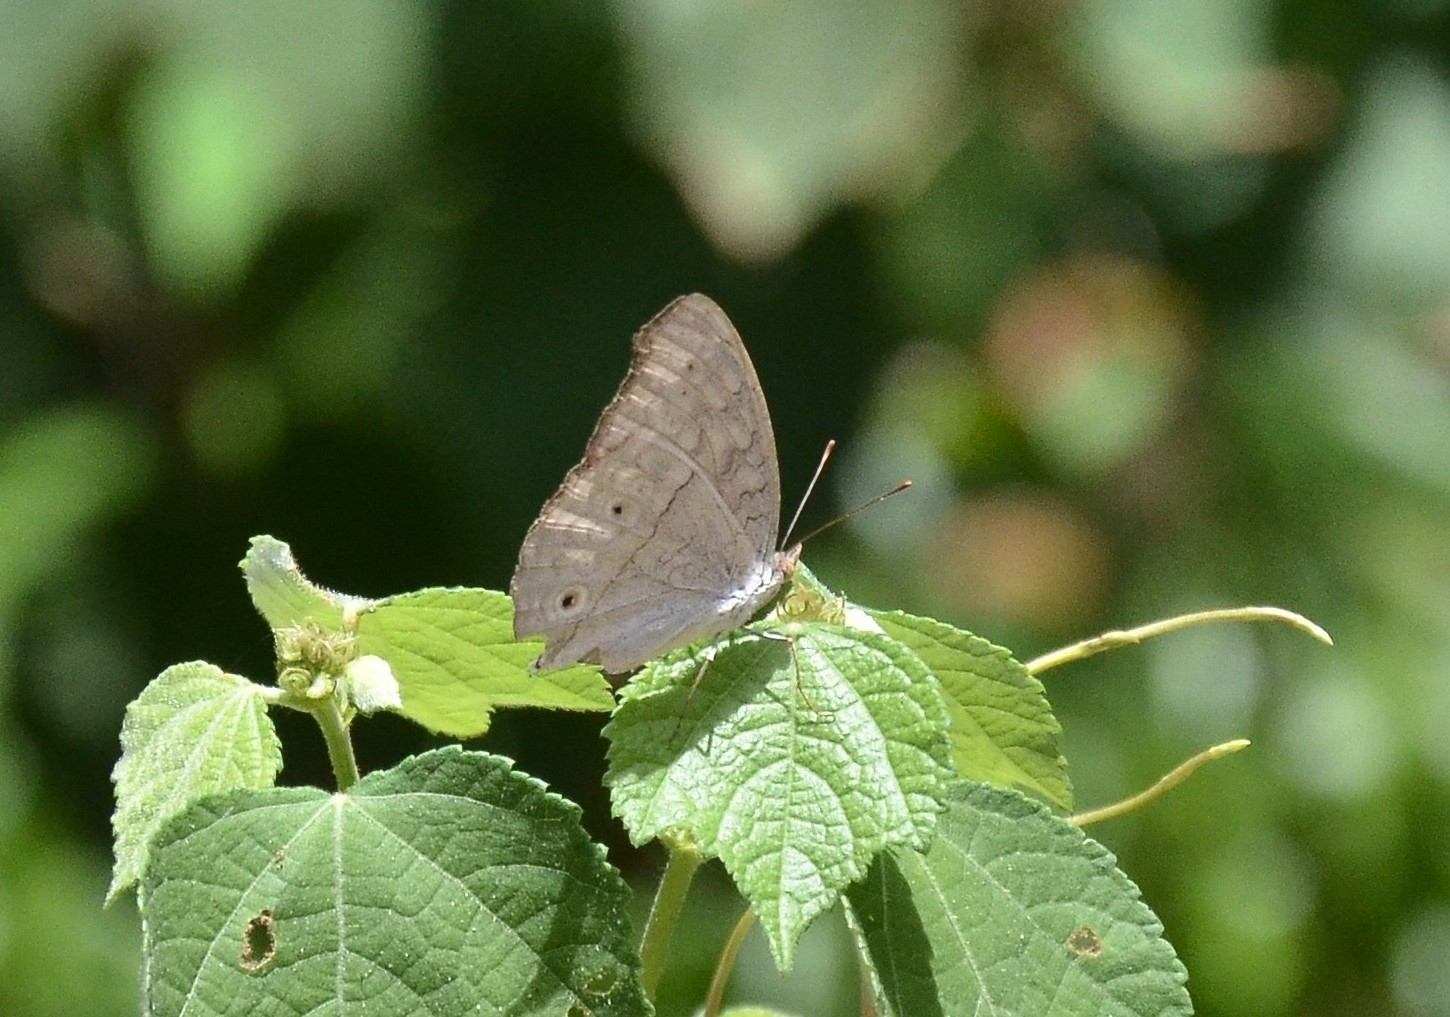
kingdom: Animalia
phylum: Arthropoda
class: Insecta
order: Lepidoptera
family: Nymphalidae
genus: Junonia
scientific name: Junonia atlites
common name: Grey pansy
